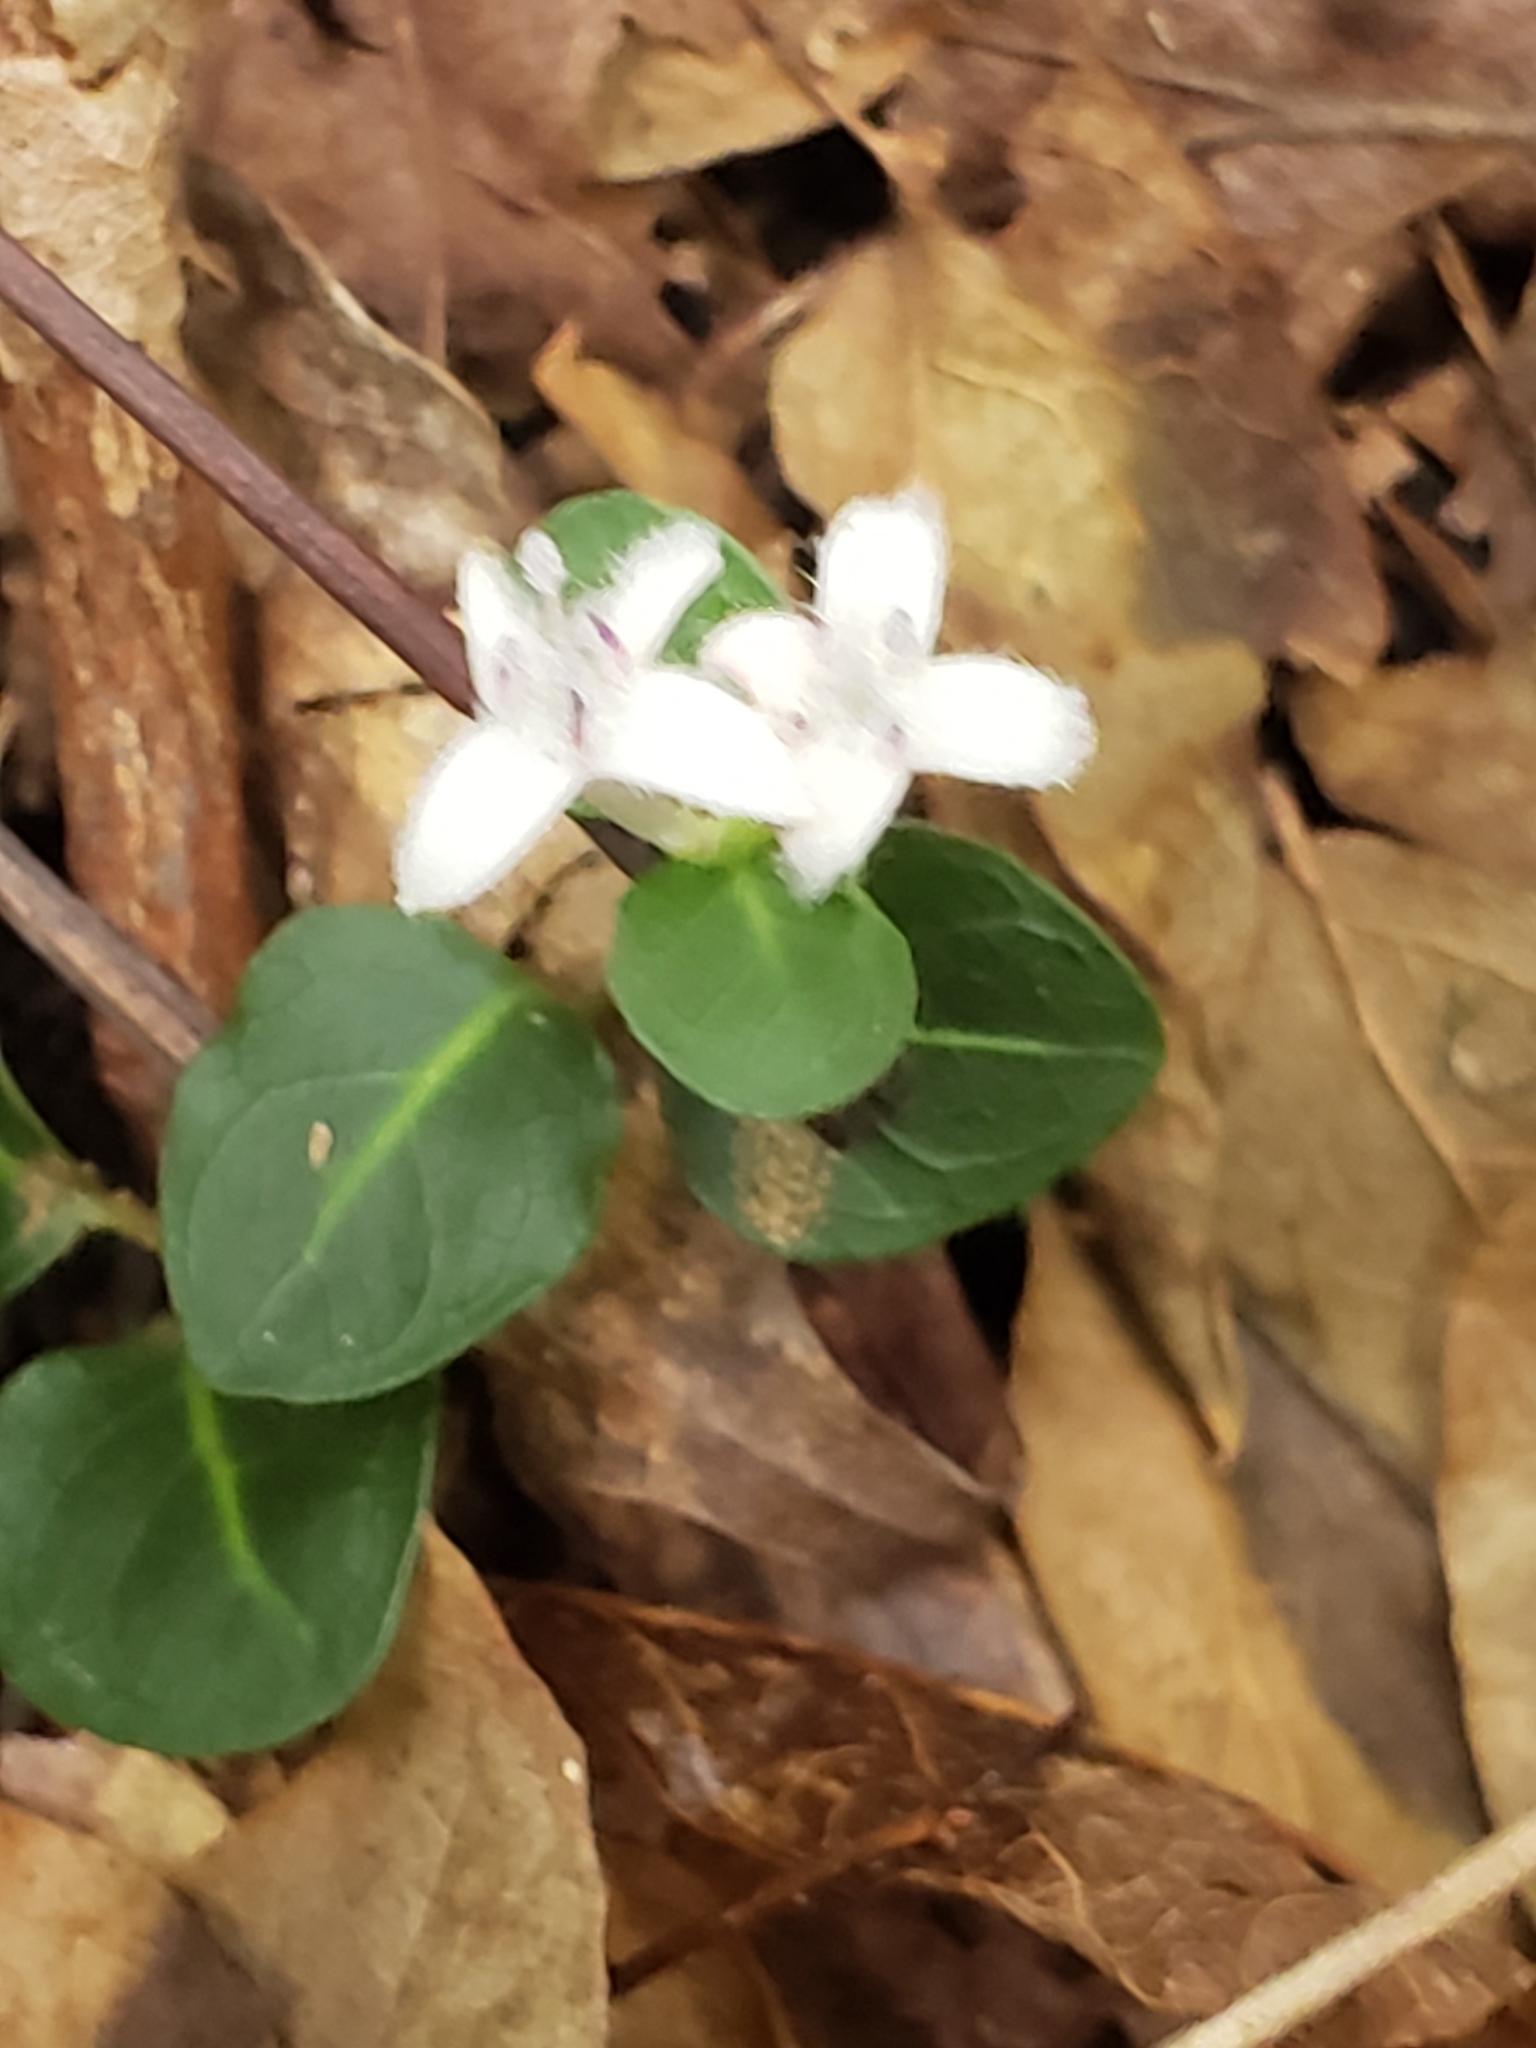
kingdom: Plantae
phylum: Tracheophyta
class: Magnoliopsida
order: Gentianales
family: Rubiaceae
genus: Mitchella
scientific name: Mitchella repens
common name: Partridge-berry
